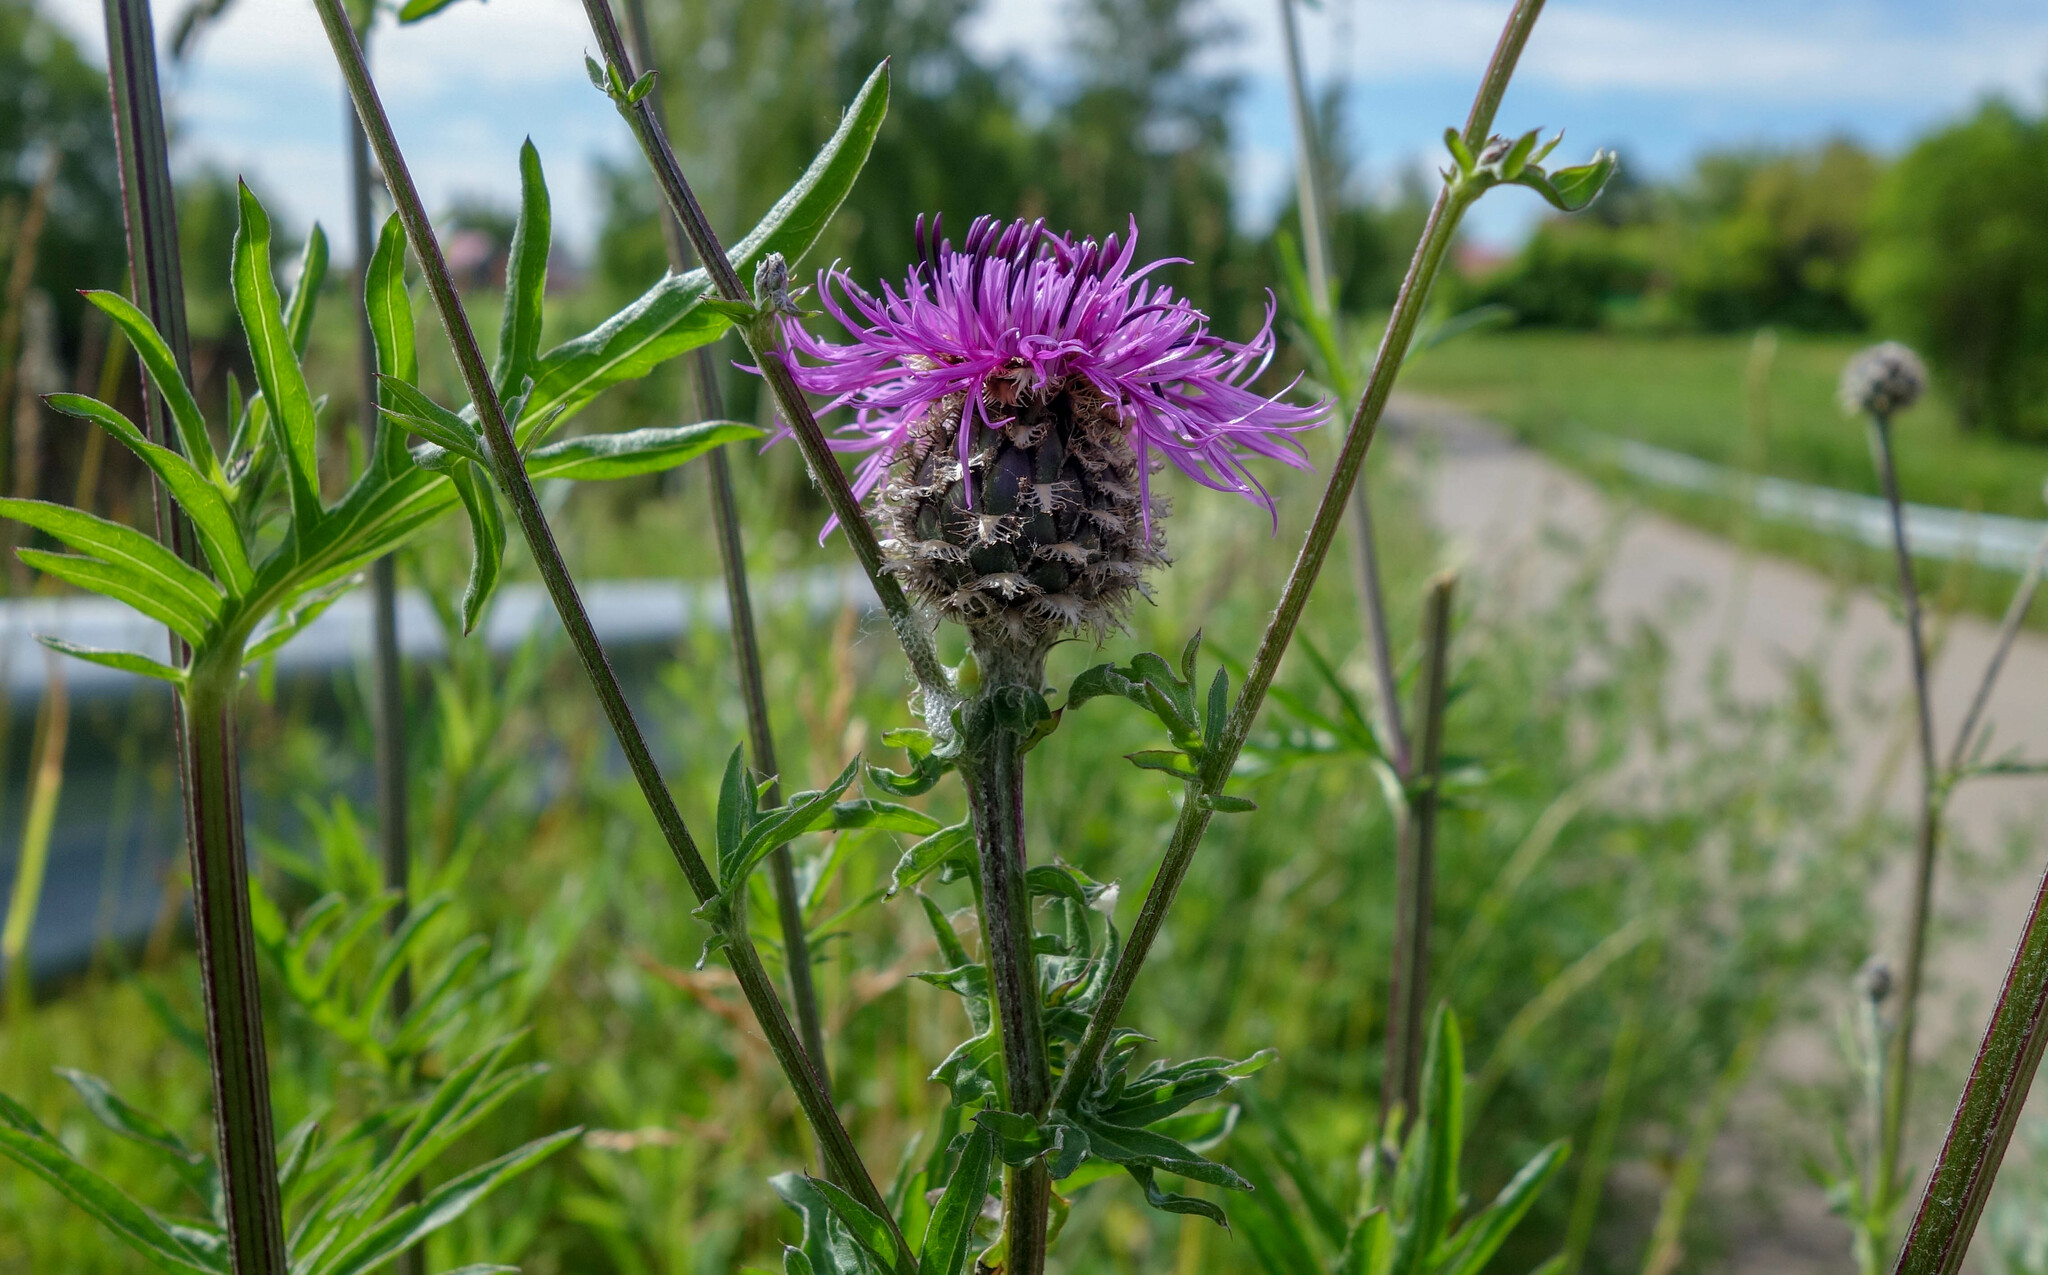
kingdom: Plantae
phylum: Tracheophyta
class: Magnoliopsida
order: Asterales
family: Asteraceae
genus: Centaurea
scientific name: Centaurea scabiosa
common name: Greater knapweed
